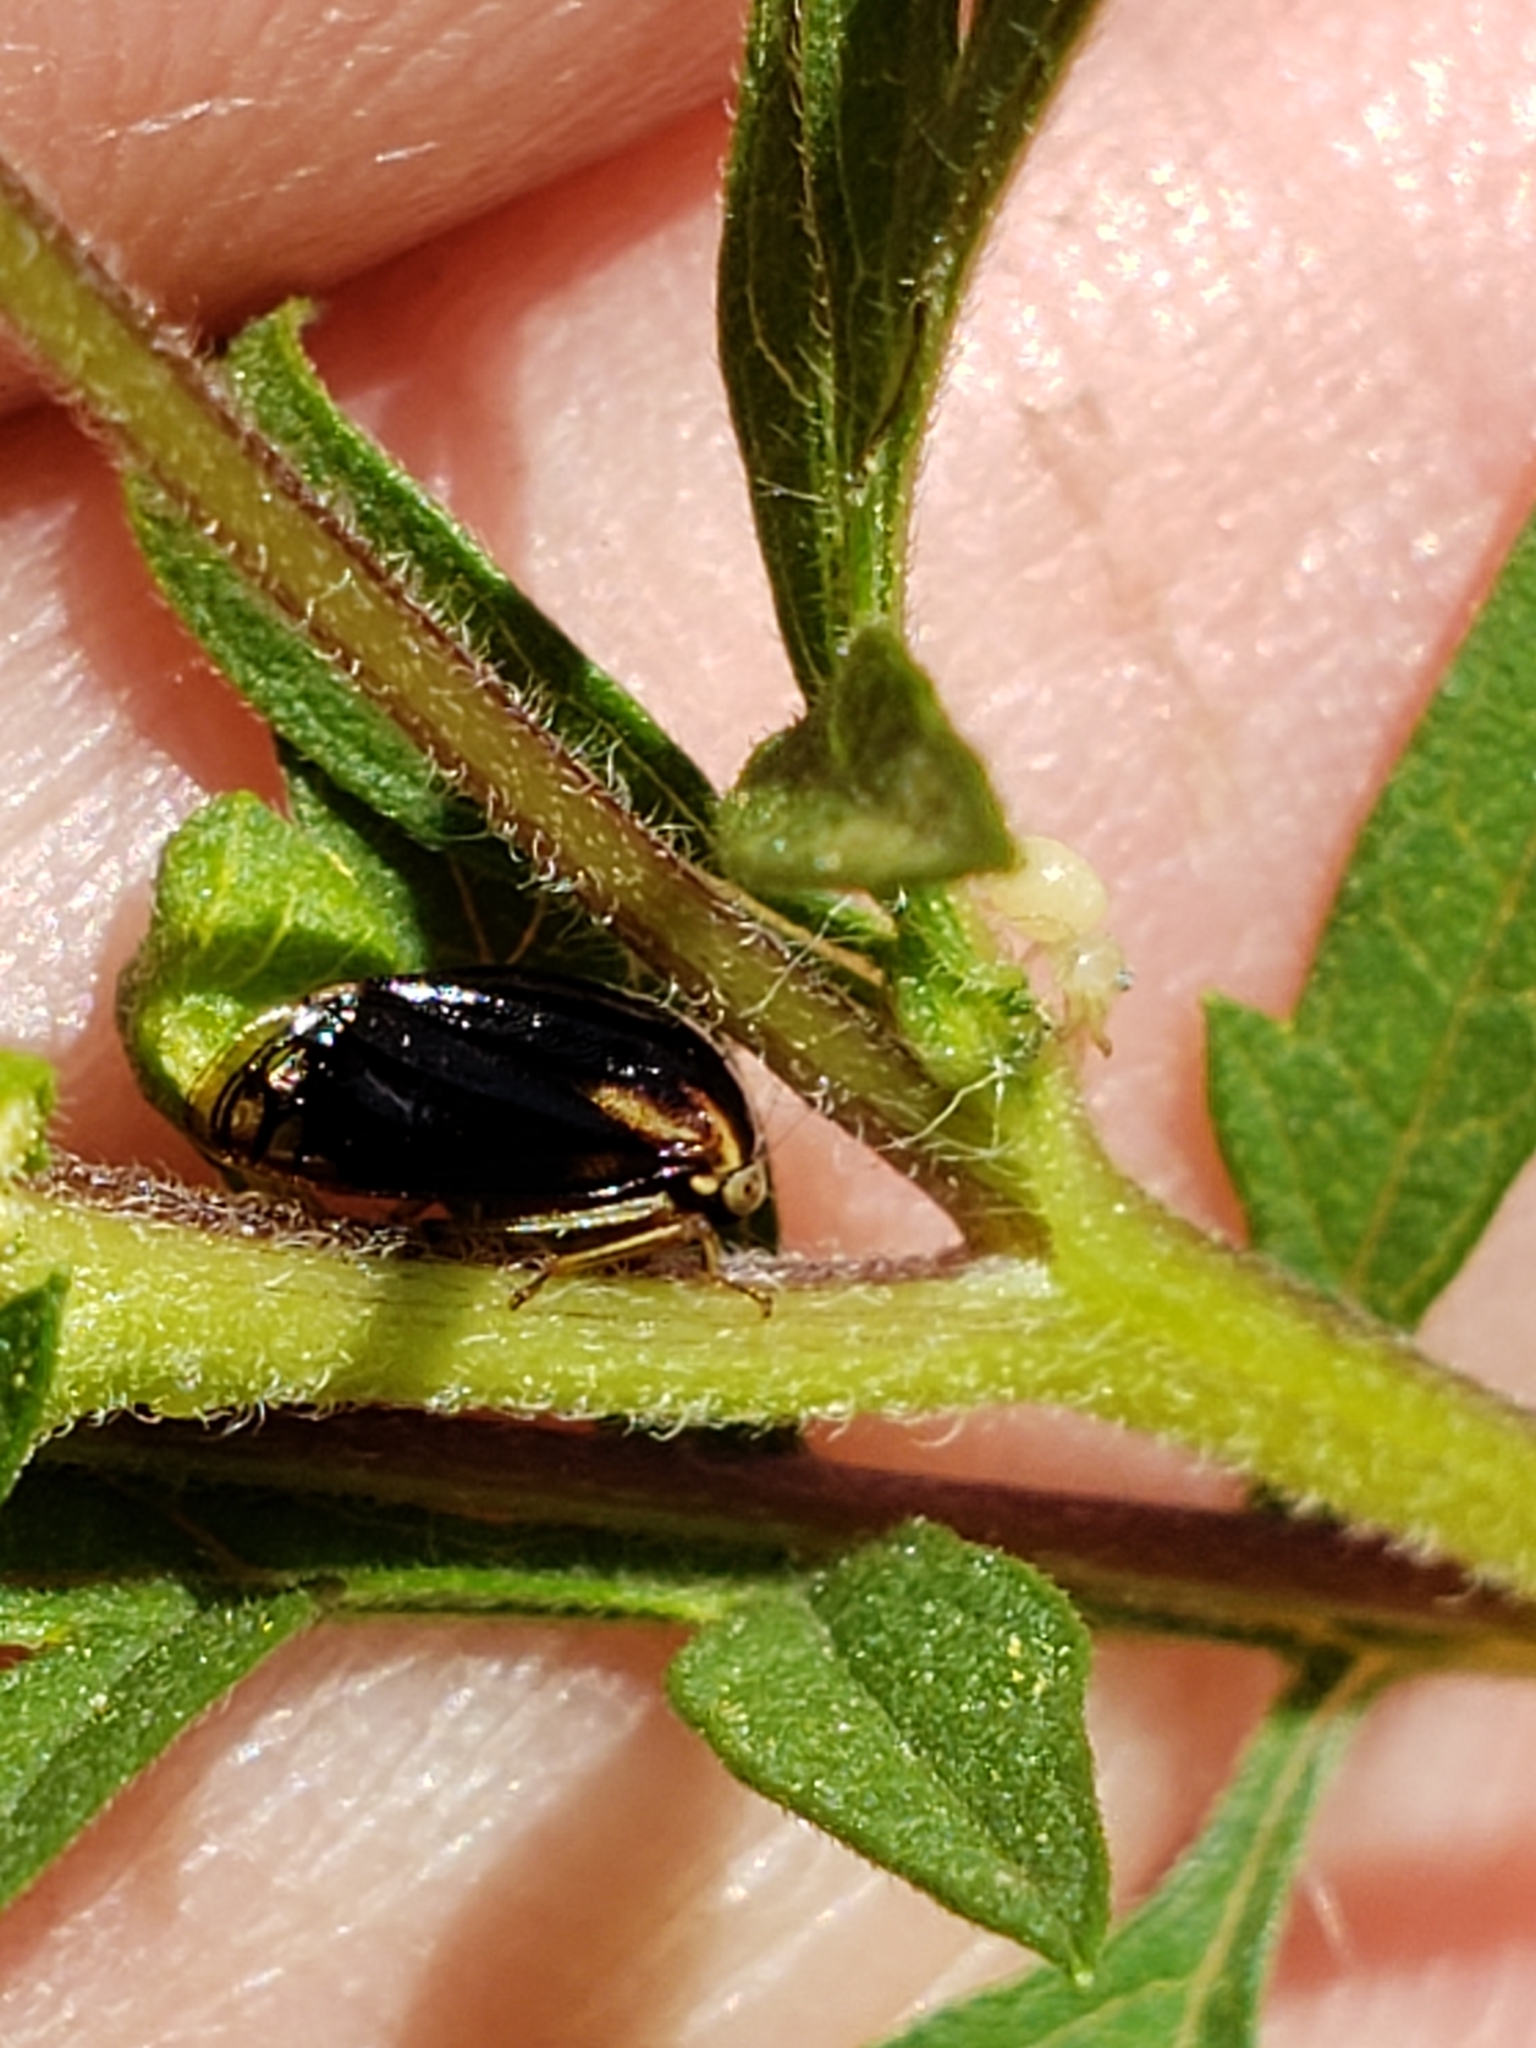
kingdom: Animalia
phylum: Arthropoda
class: Insecta
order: Hemiptera
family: Membracidae
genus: Acutalis
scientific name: Acutalis tartarea
